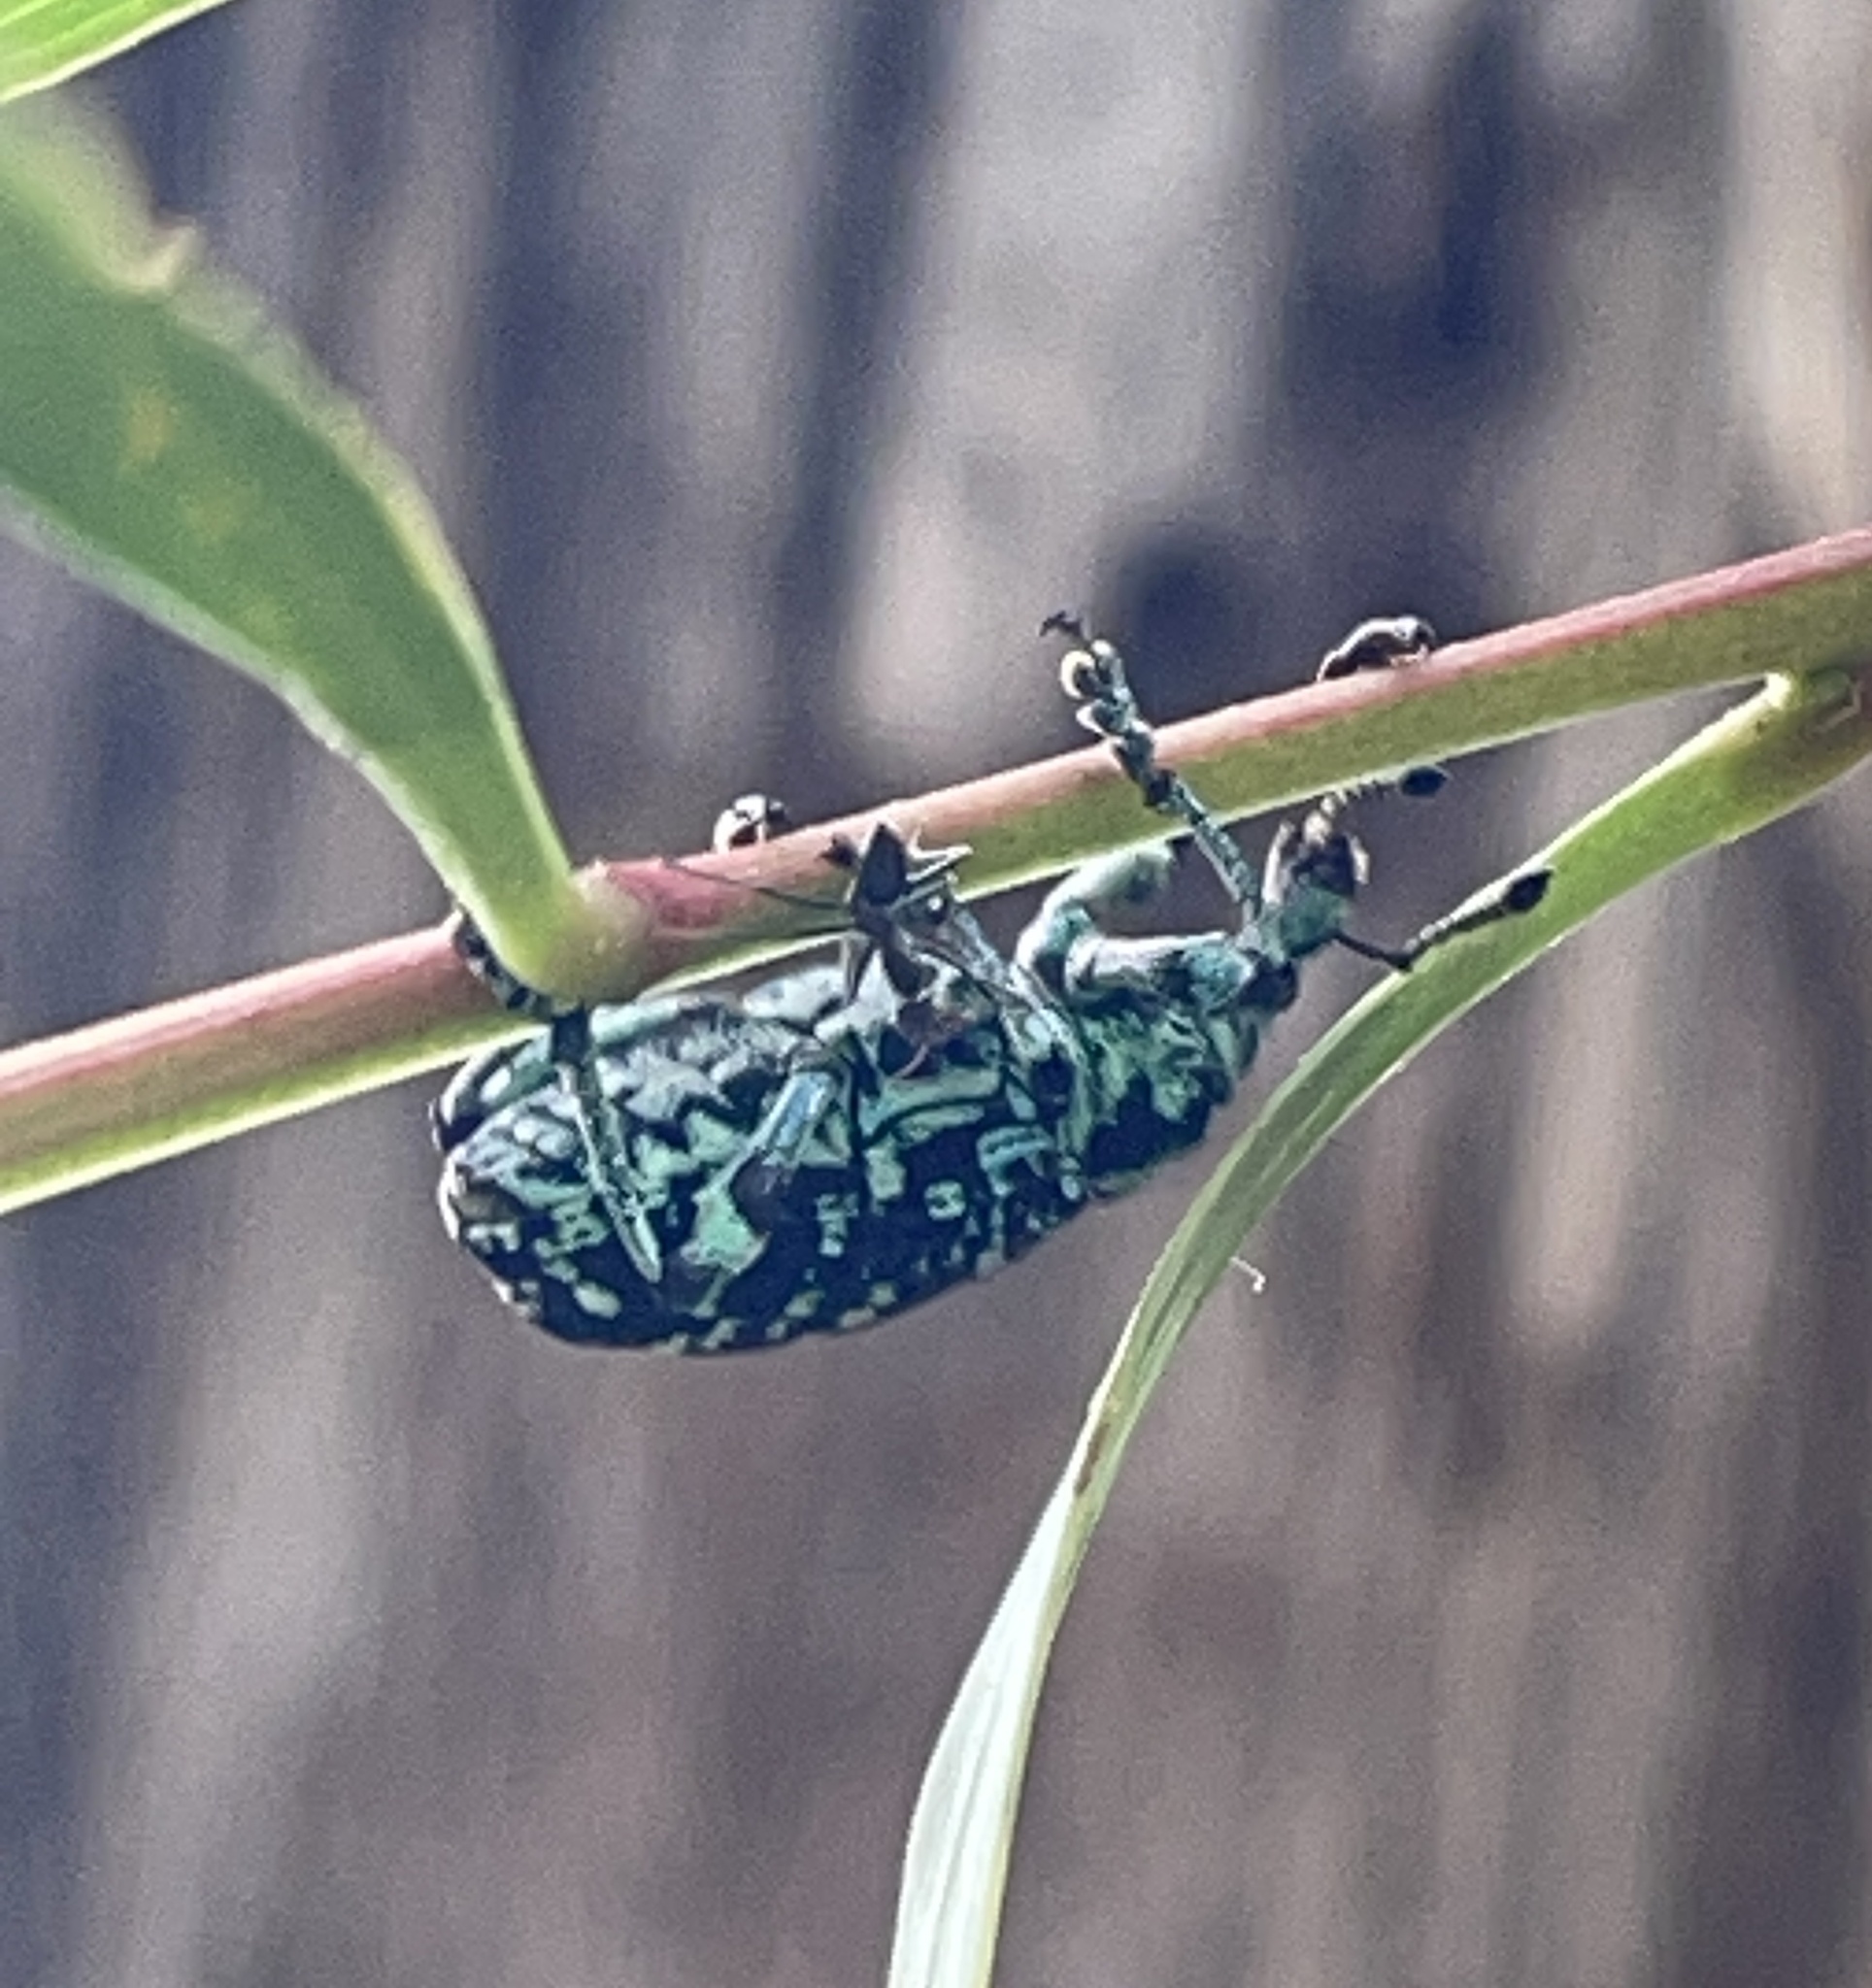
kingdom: Animalia
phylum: Arthropoda
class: Insecta
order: Coleoptera
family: Curculionidae
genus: Chrysolopus
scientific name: Chrysolopus spectabilis
